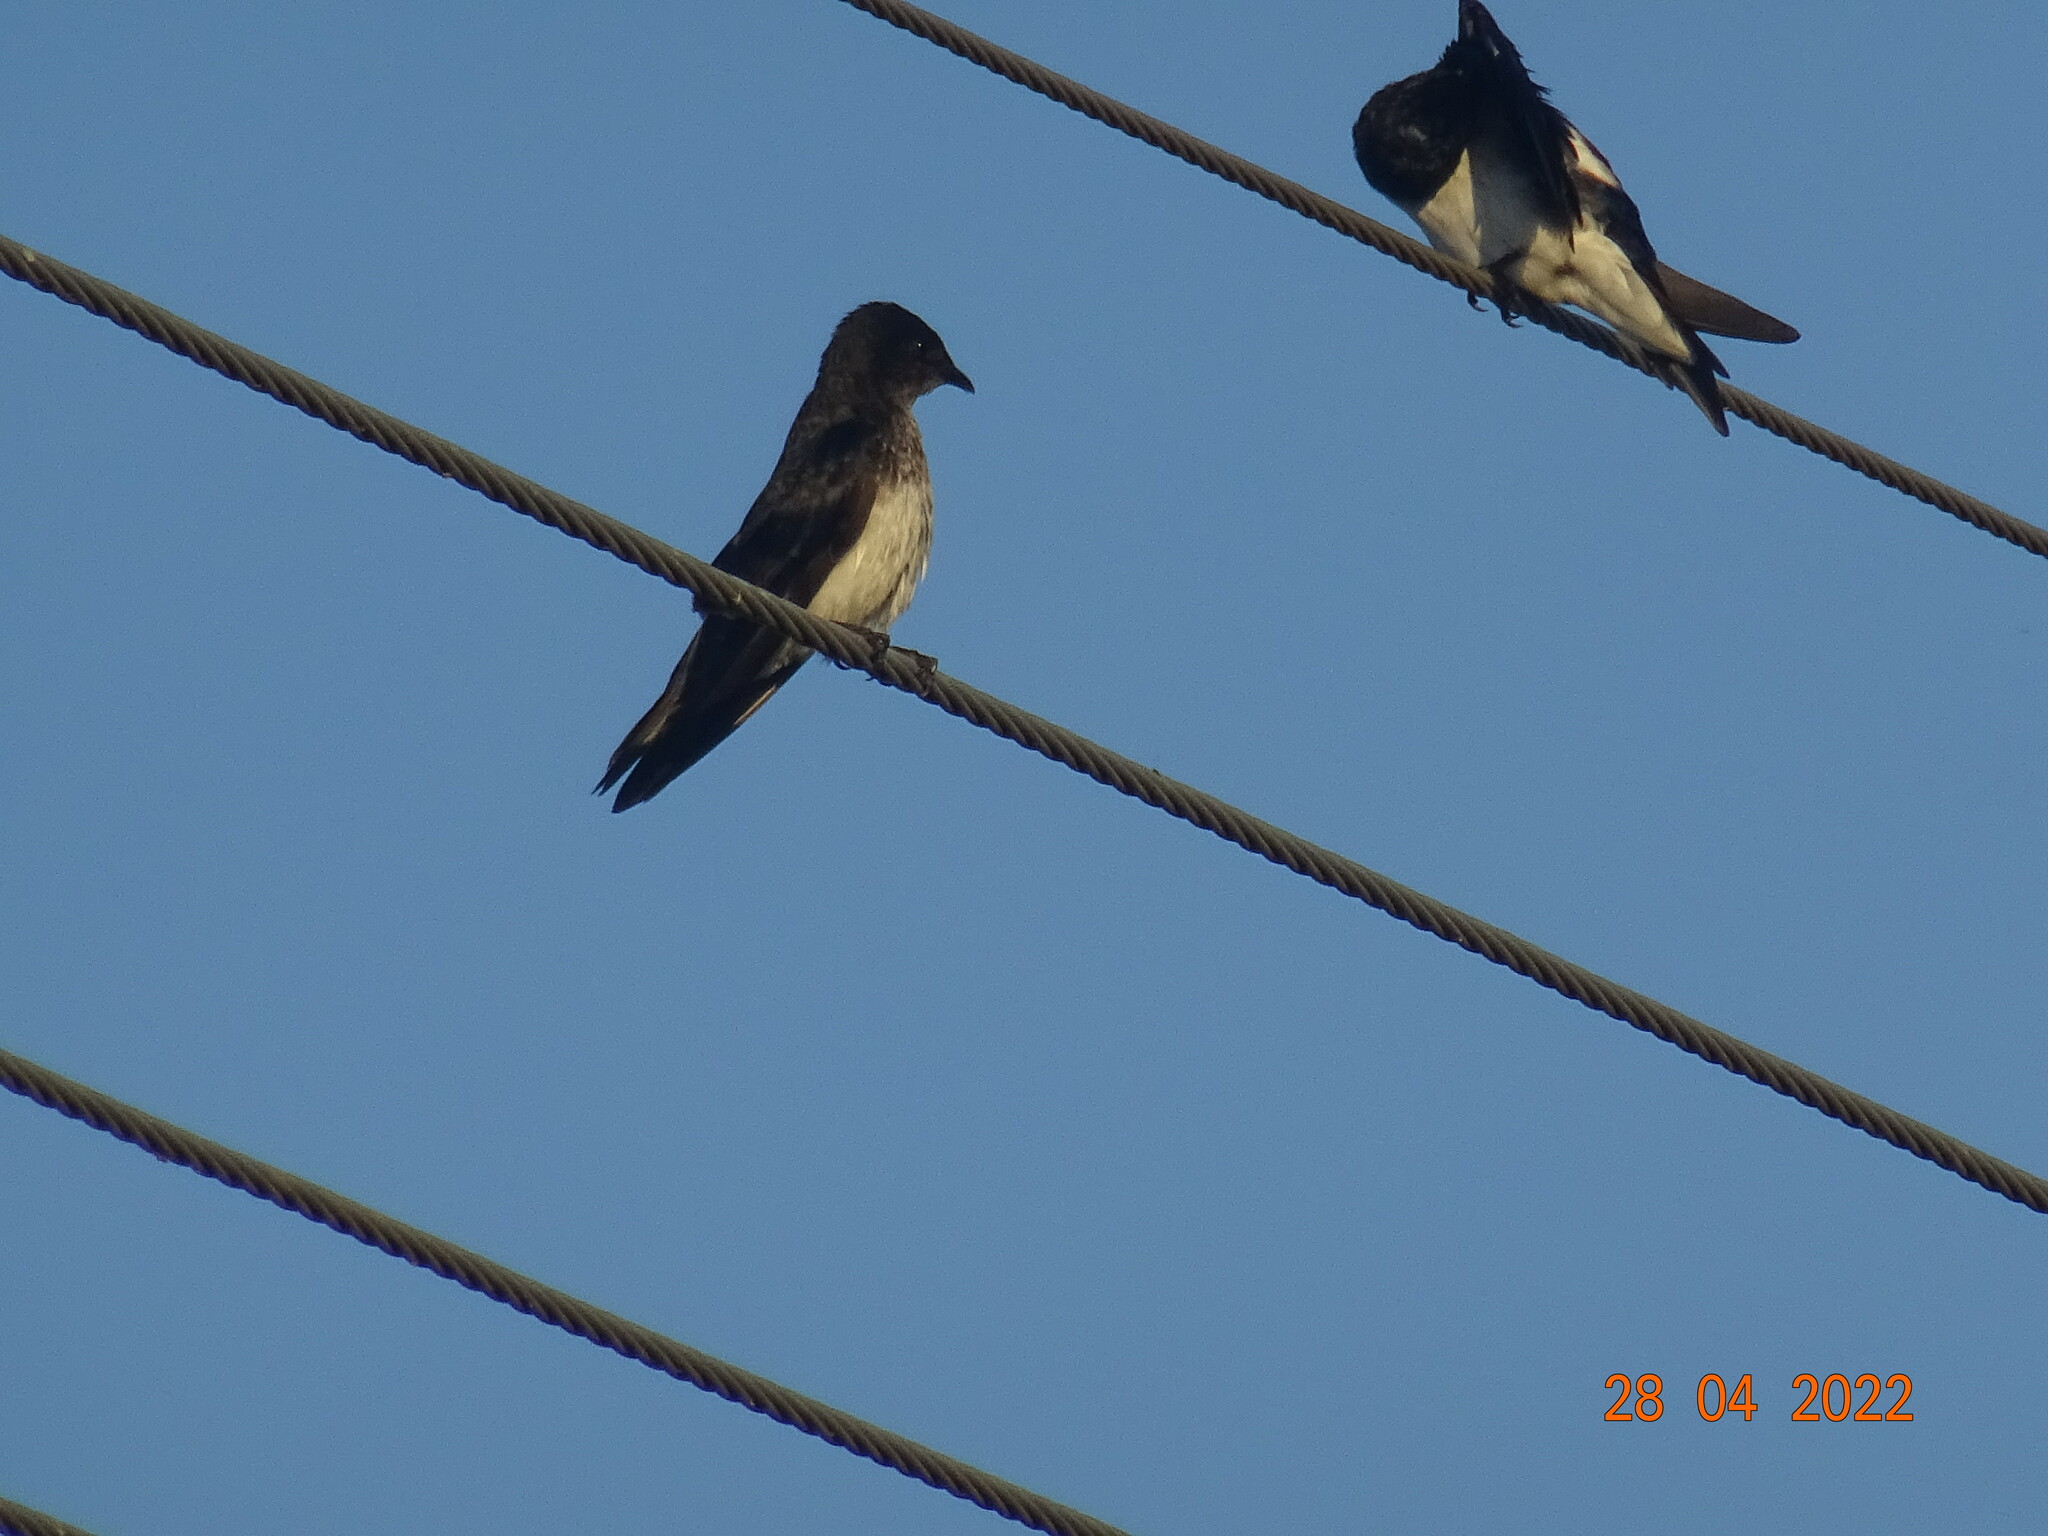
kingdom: Animalia
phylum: Chordata
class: Aves
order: Passeriformes
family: Hirundinidae
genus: Progne
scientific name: Progne chalybea
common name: Grey-breasted martin
